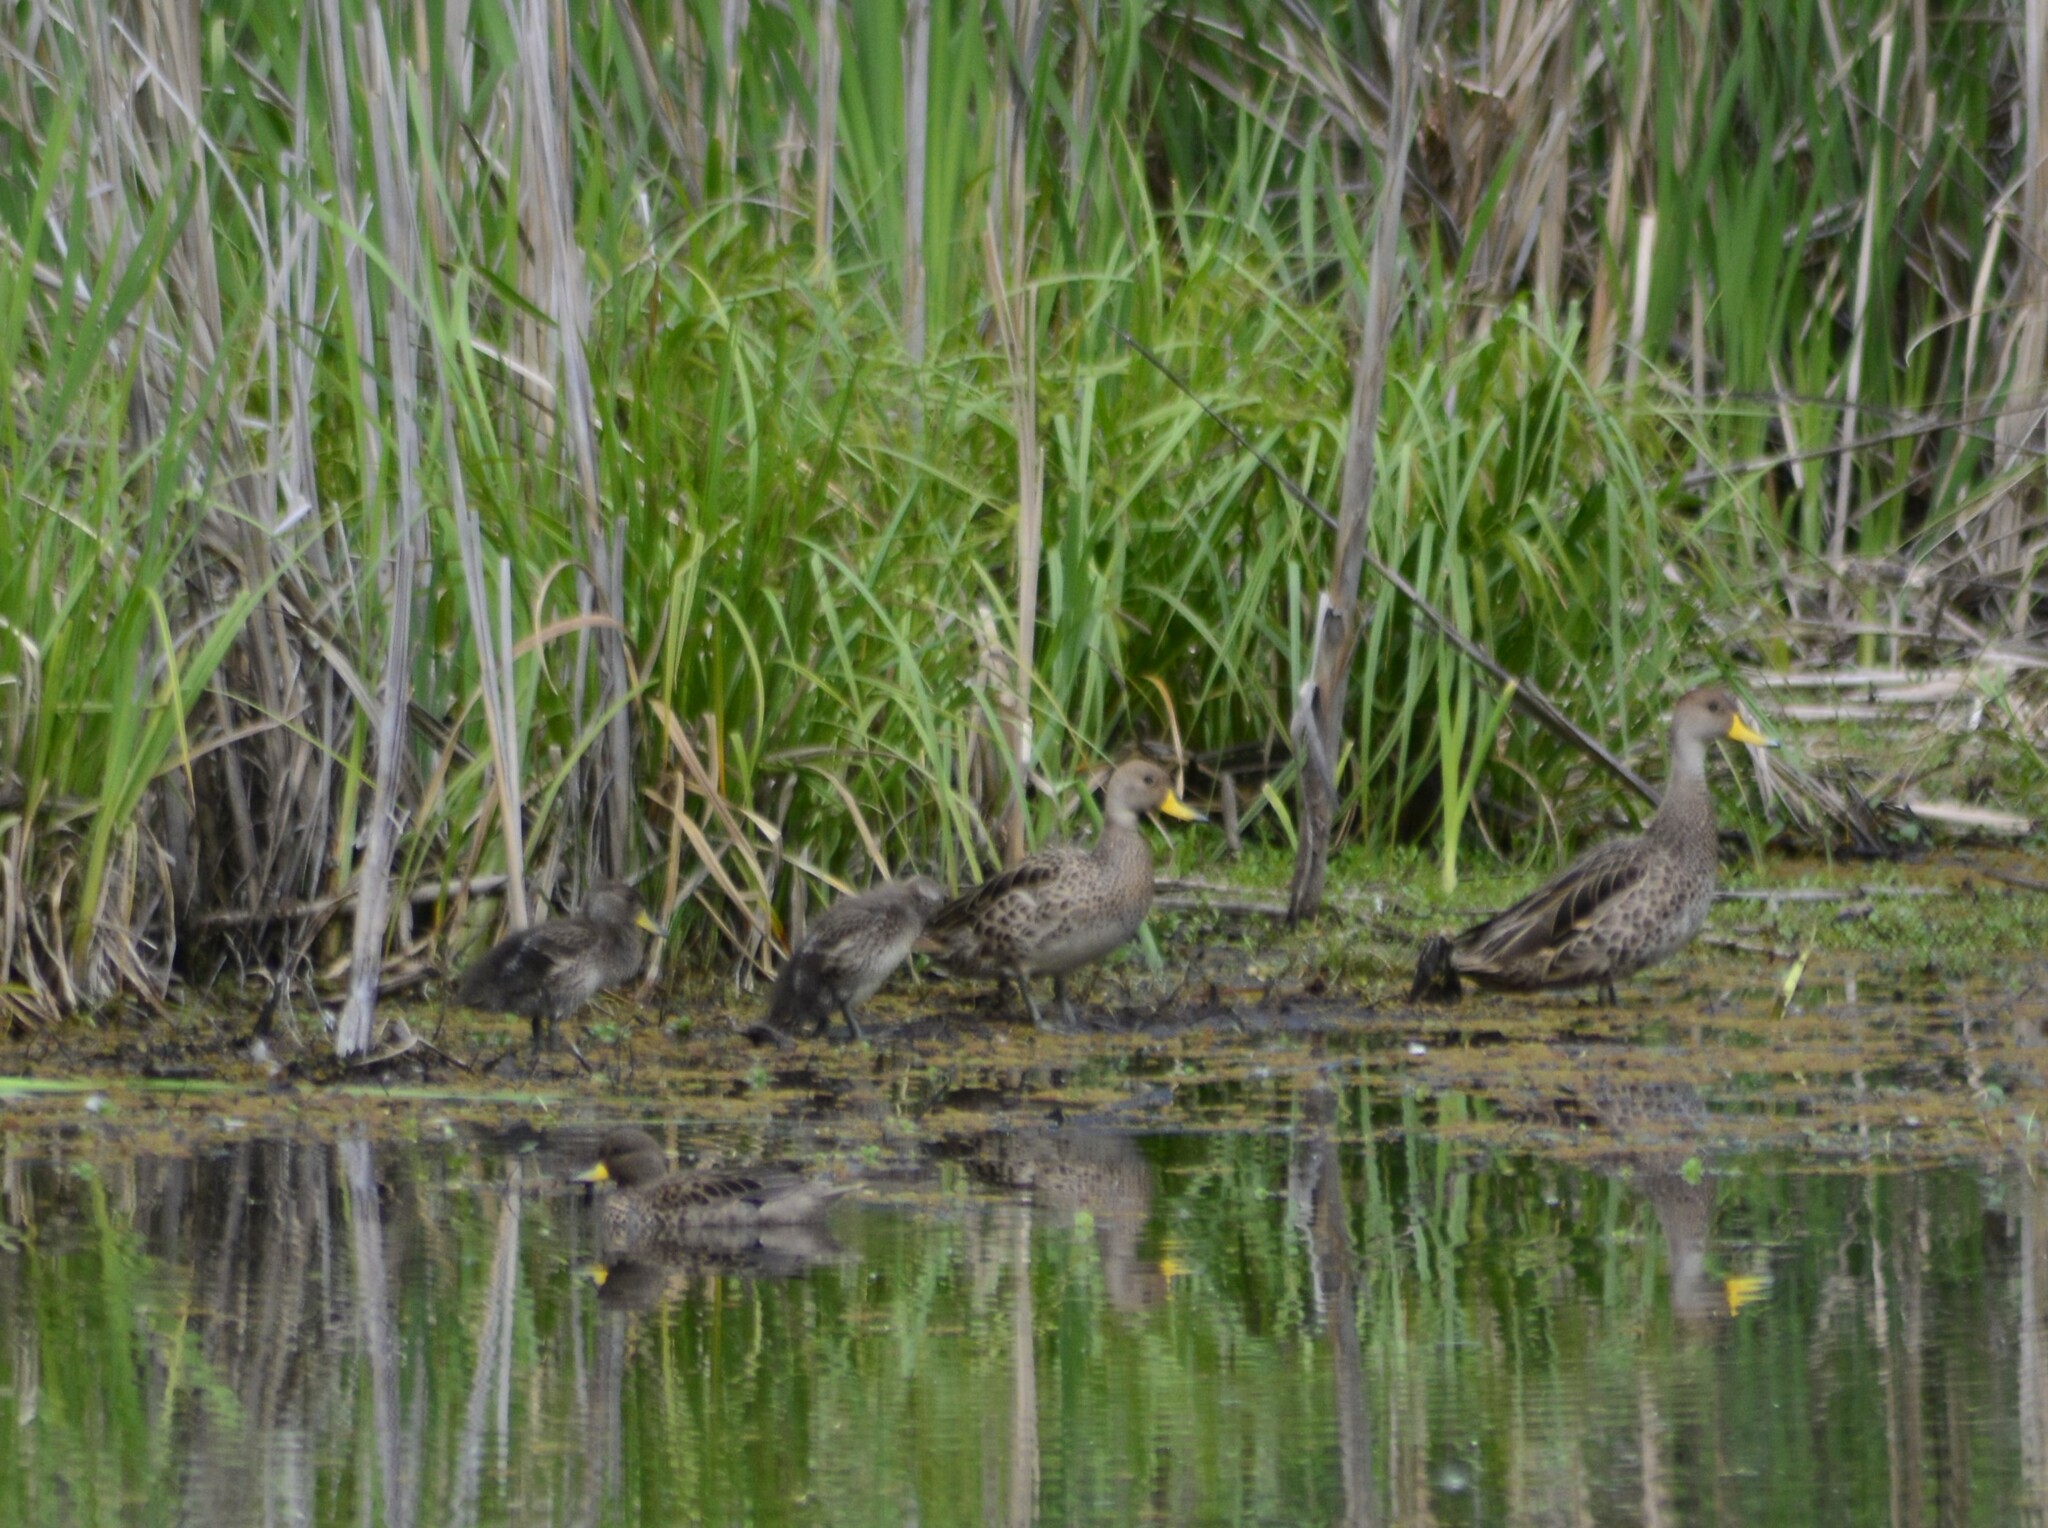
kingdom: Animalia
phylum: Chordata
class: Aves
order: Anseriformes
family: Anatidae
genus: Anas
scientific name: Anas georgica
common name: Yellow-billed pintail
